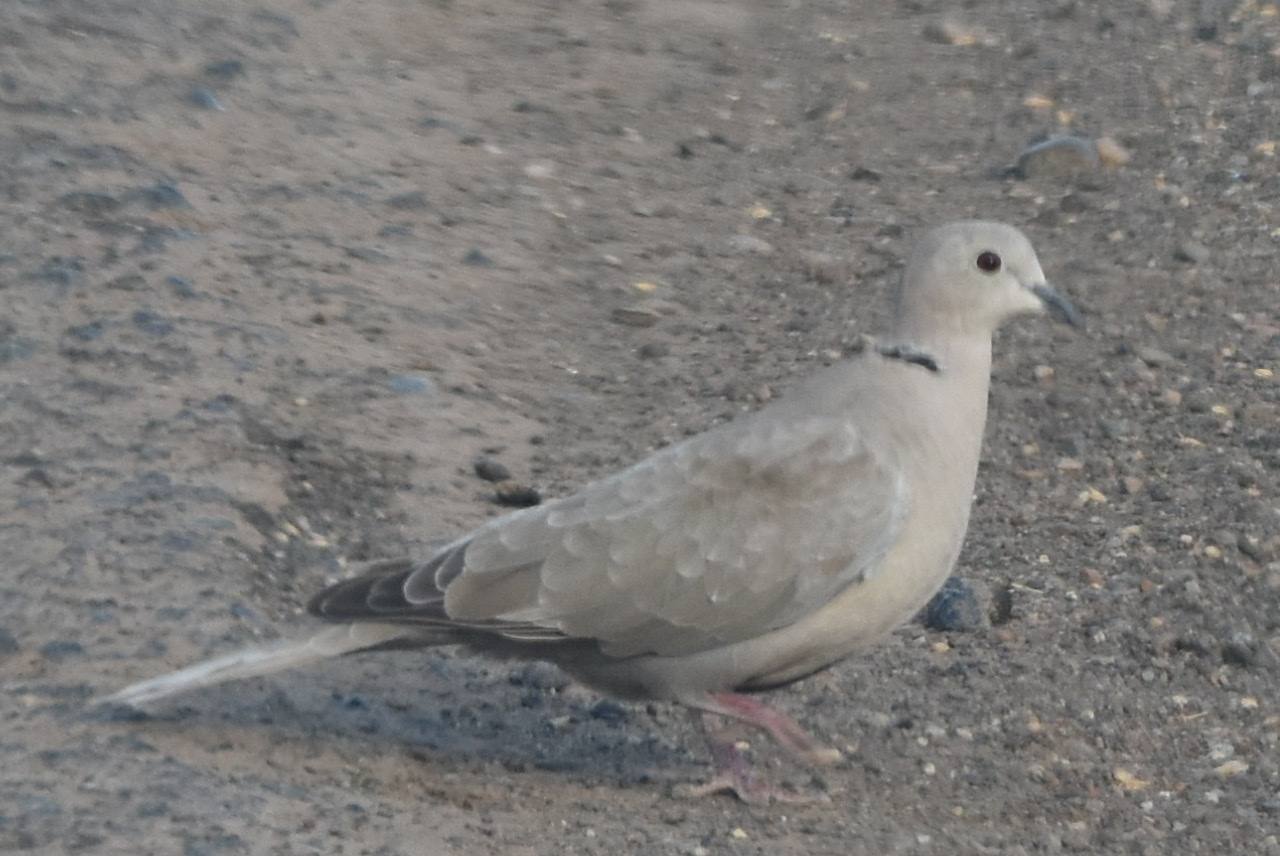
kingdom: Animalia
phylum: Chordata
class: Aves
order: Columbiformes
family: Columbidae
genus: Streptopelia
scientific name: Streptopelia decaocto
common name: Eurasian collared dove
